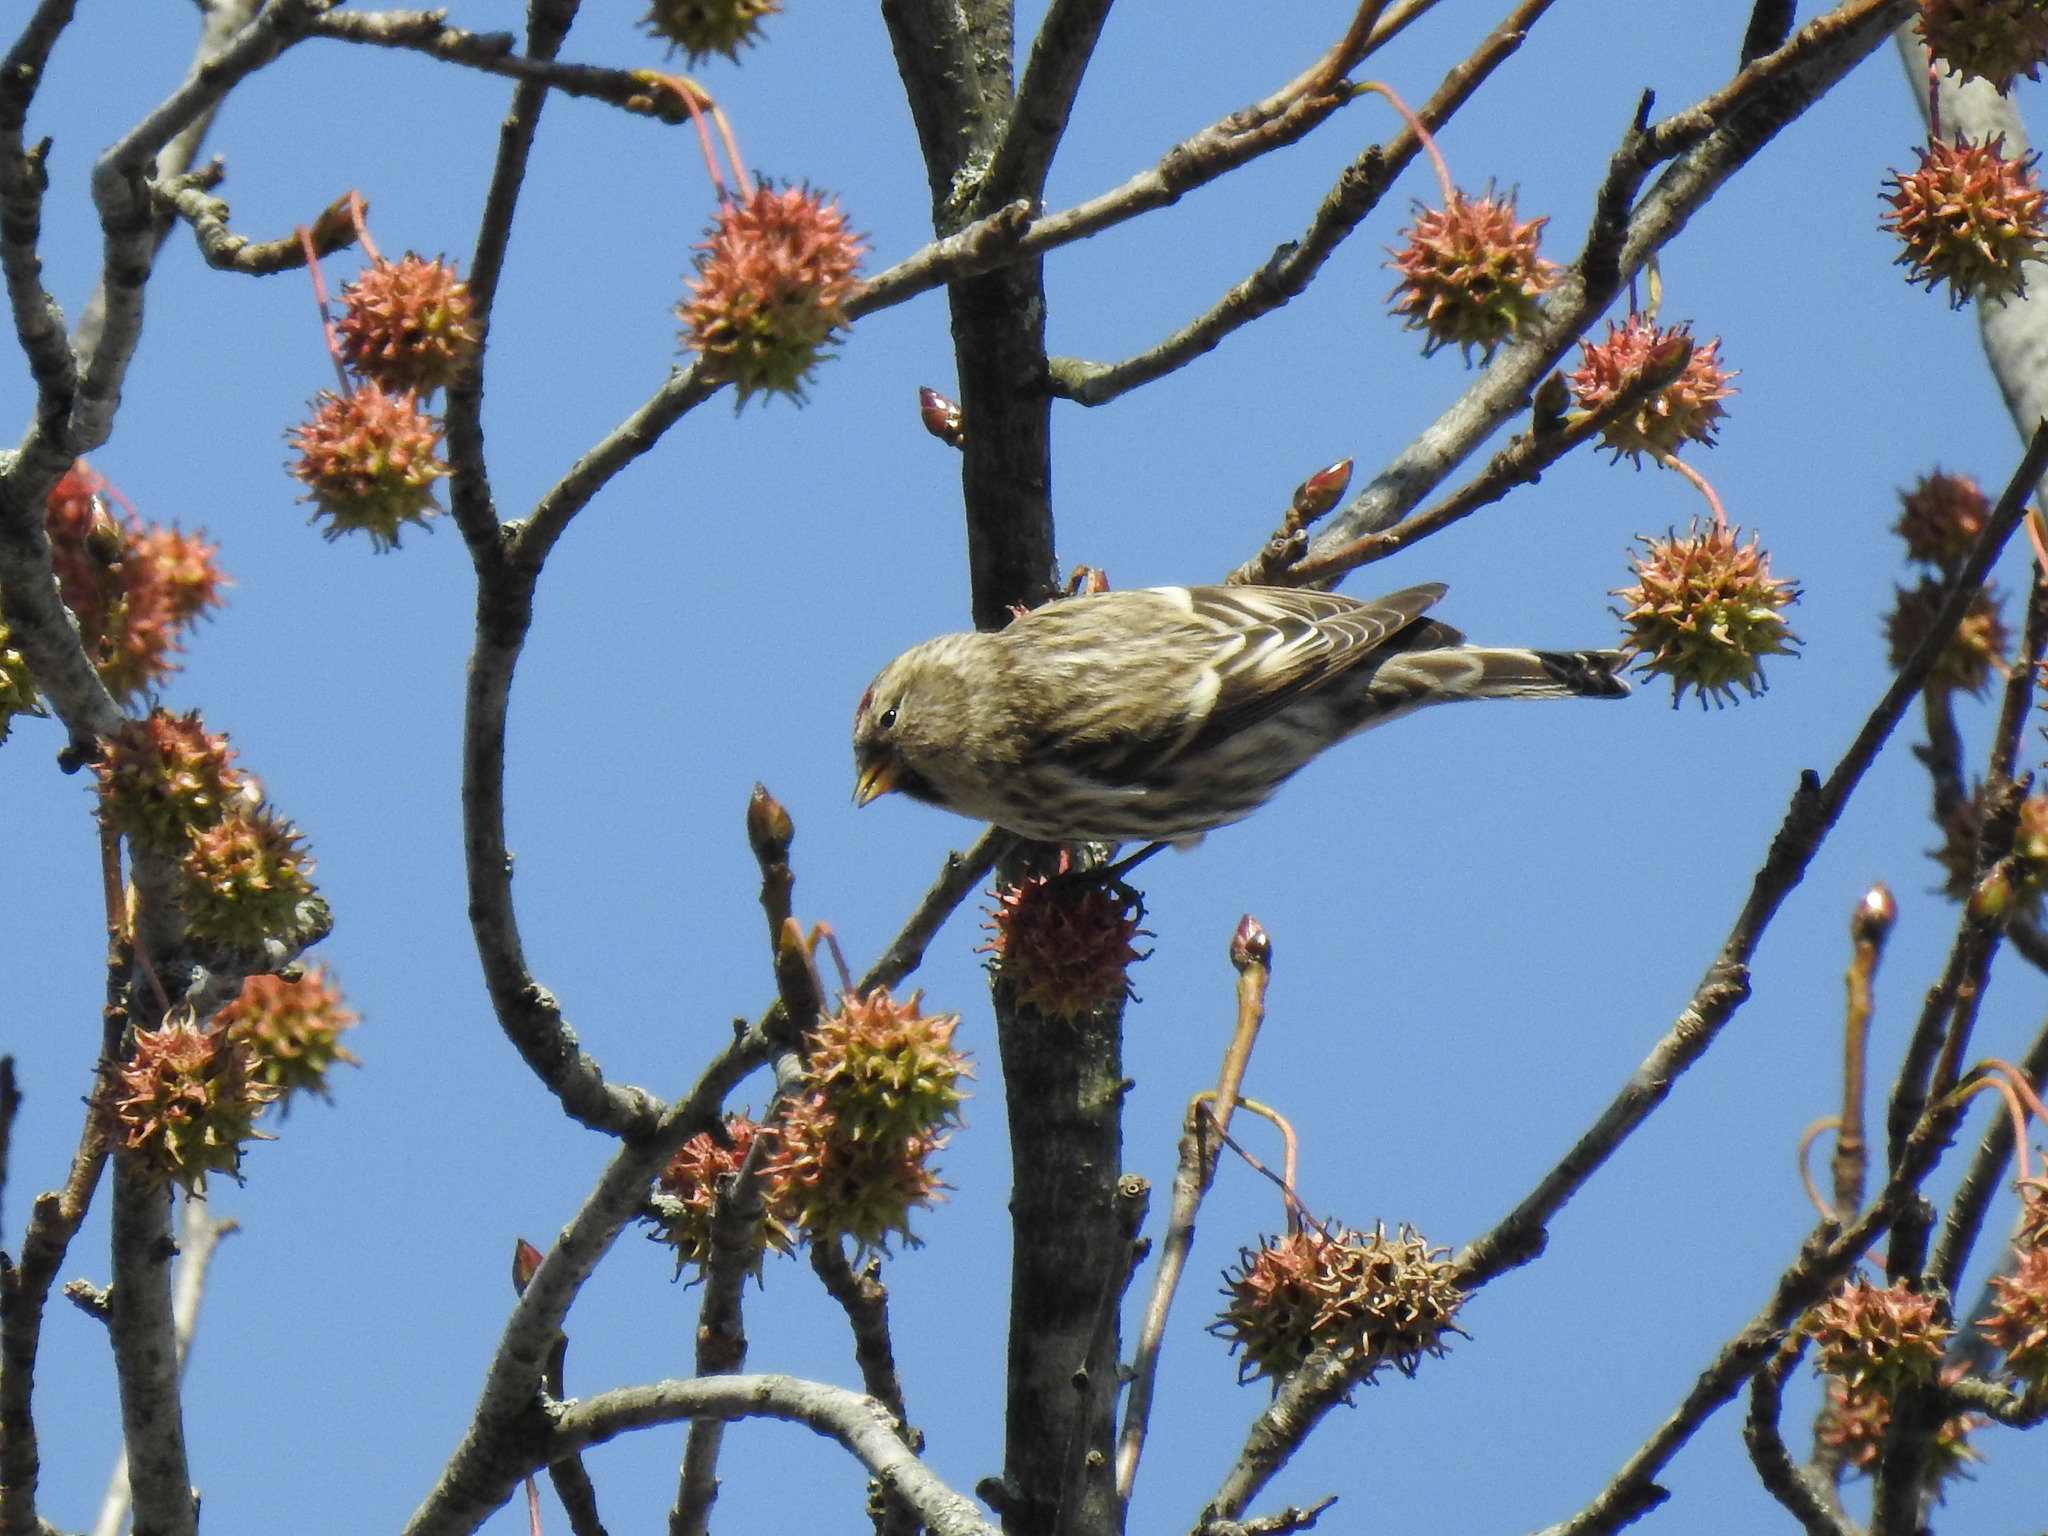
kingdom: Animalia
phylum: Chordata
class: Aves
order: Passeriformes
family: Fringillidae
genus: Acanthis
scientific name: Acanthis flammea
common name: Common redpoll
